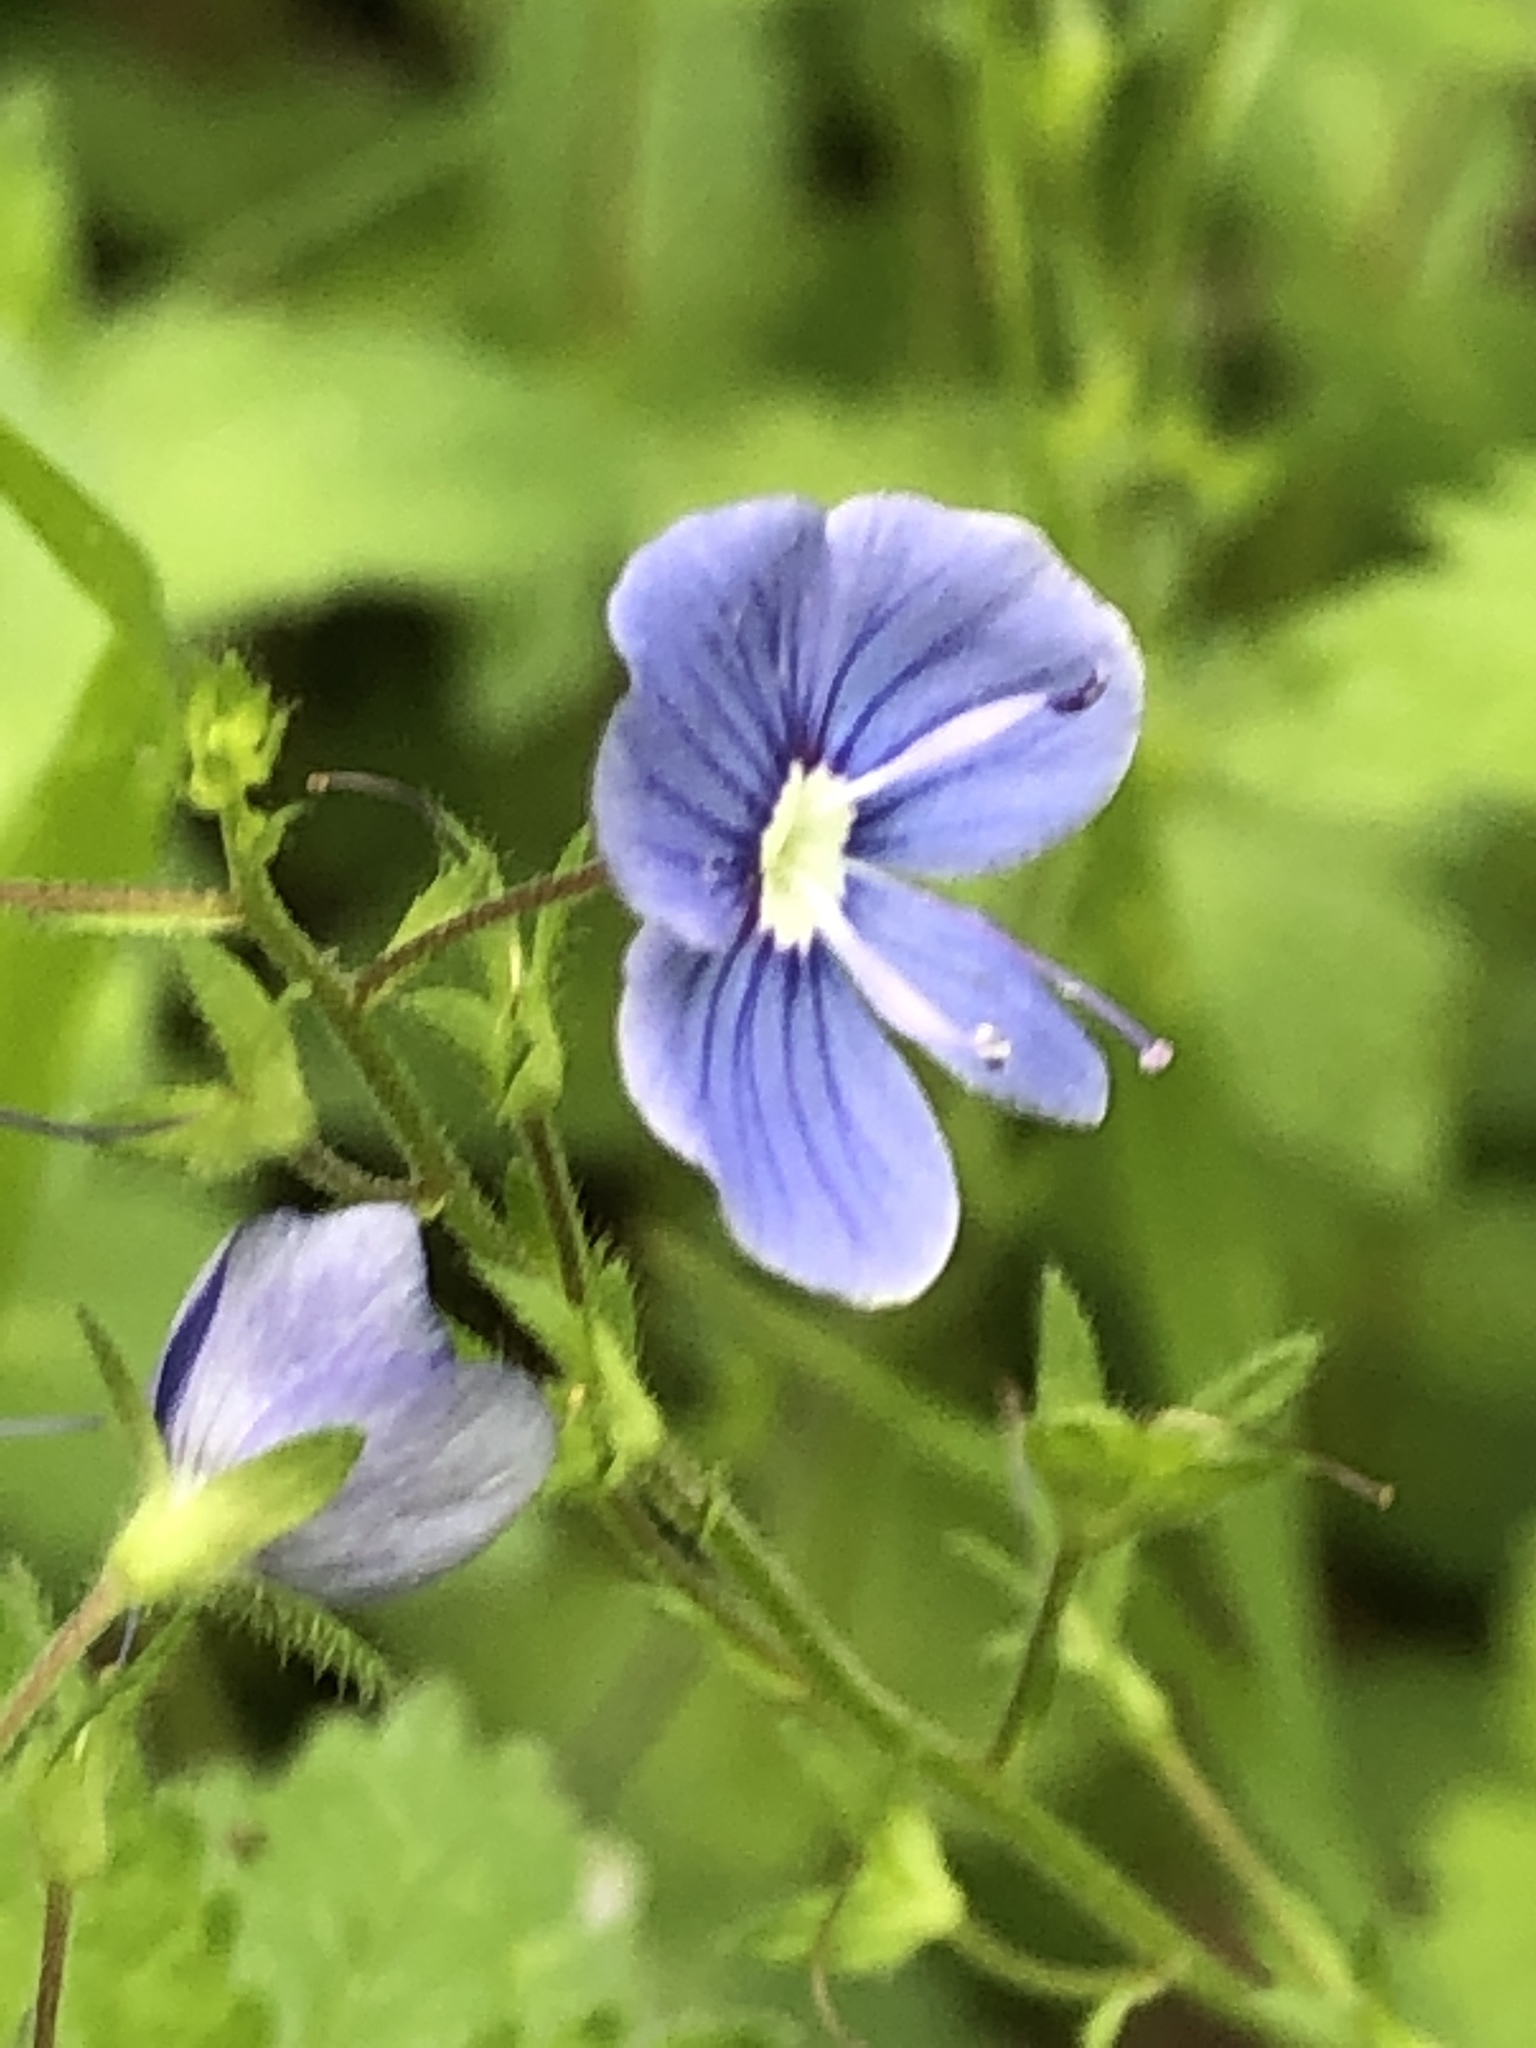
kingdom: Plantae
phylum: Tracheophyta
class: Magnoliopsida
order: Lamiales
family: Plantaginaceae
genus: Veronica
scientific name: Veronica chamaedrys
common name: Germander speedwell
